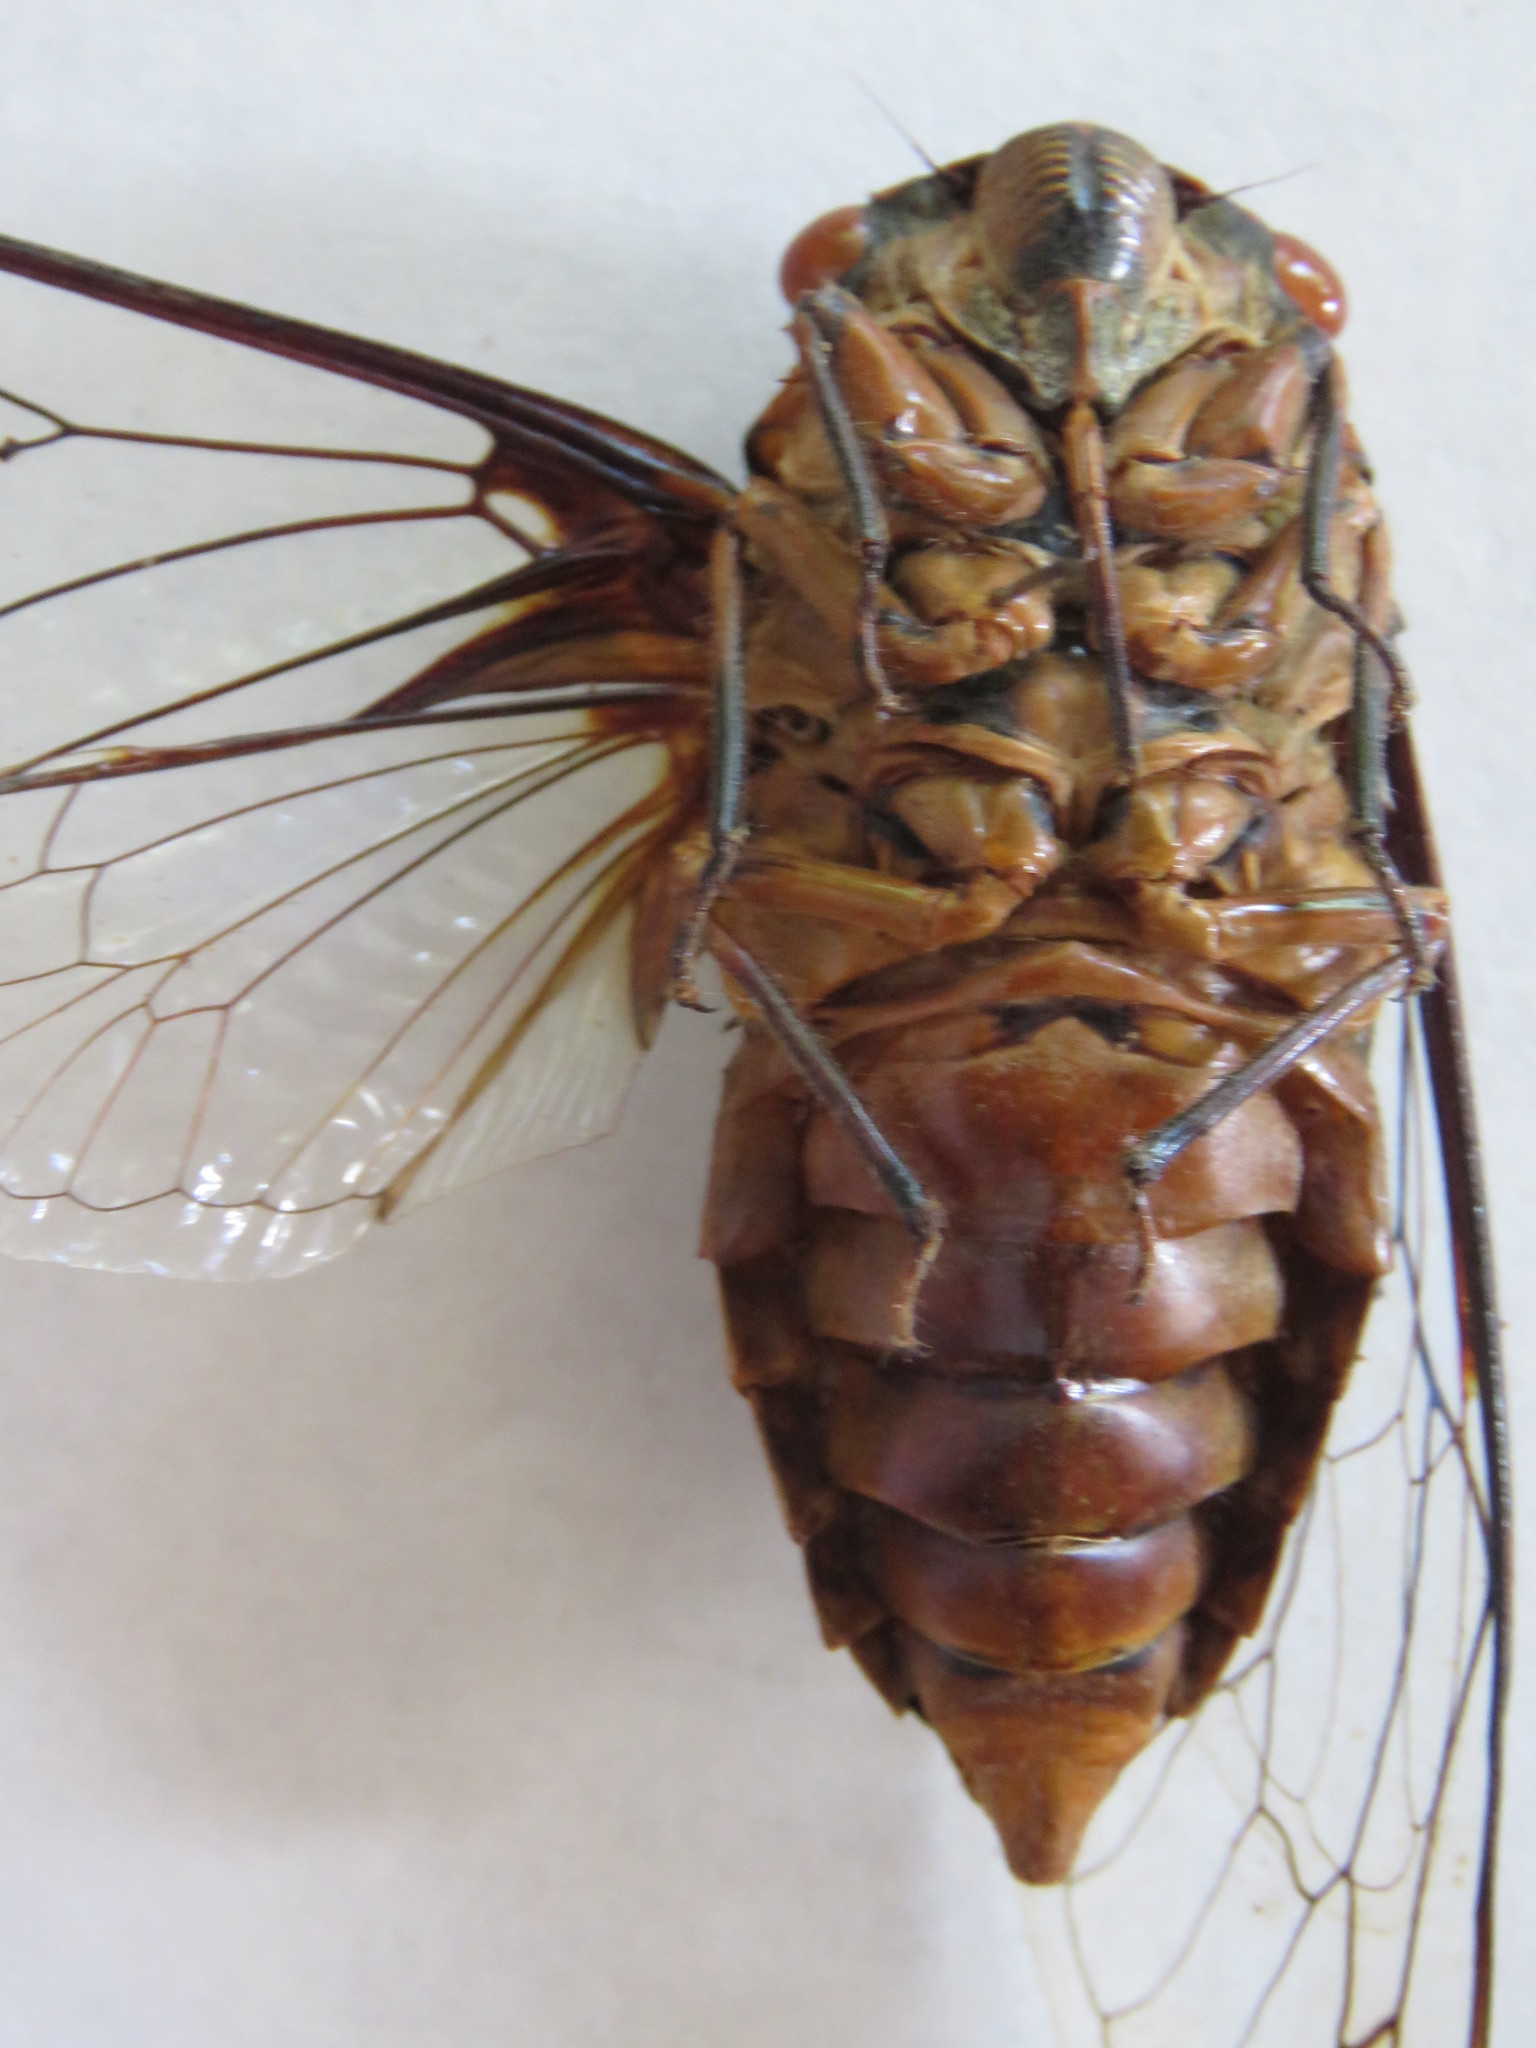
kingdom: Animalia
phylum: Arthropoda
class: Insecta
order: Hemiptera
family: Cicadidae
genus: Quesada
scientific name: Quesada gigas
